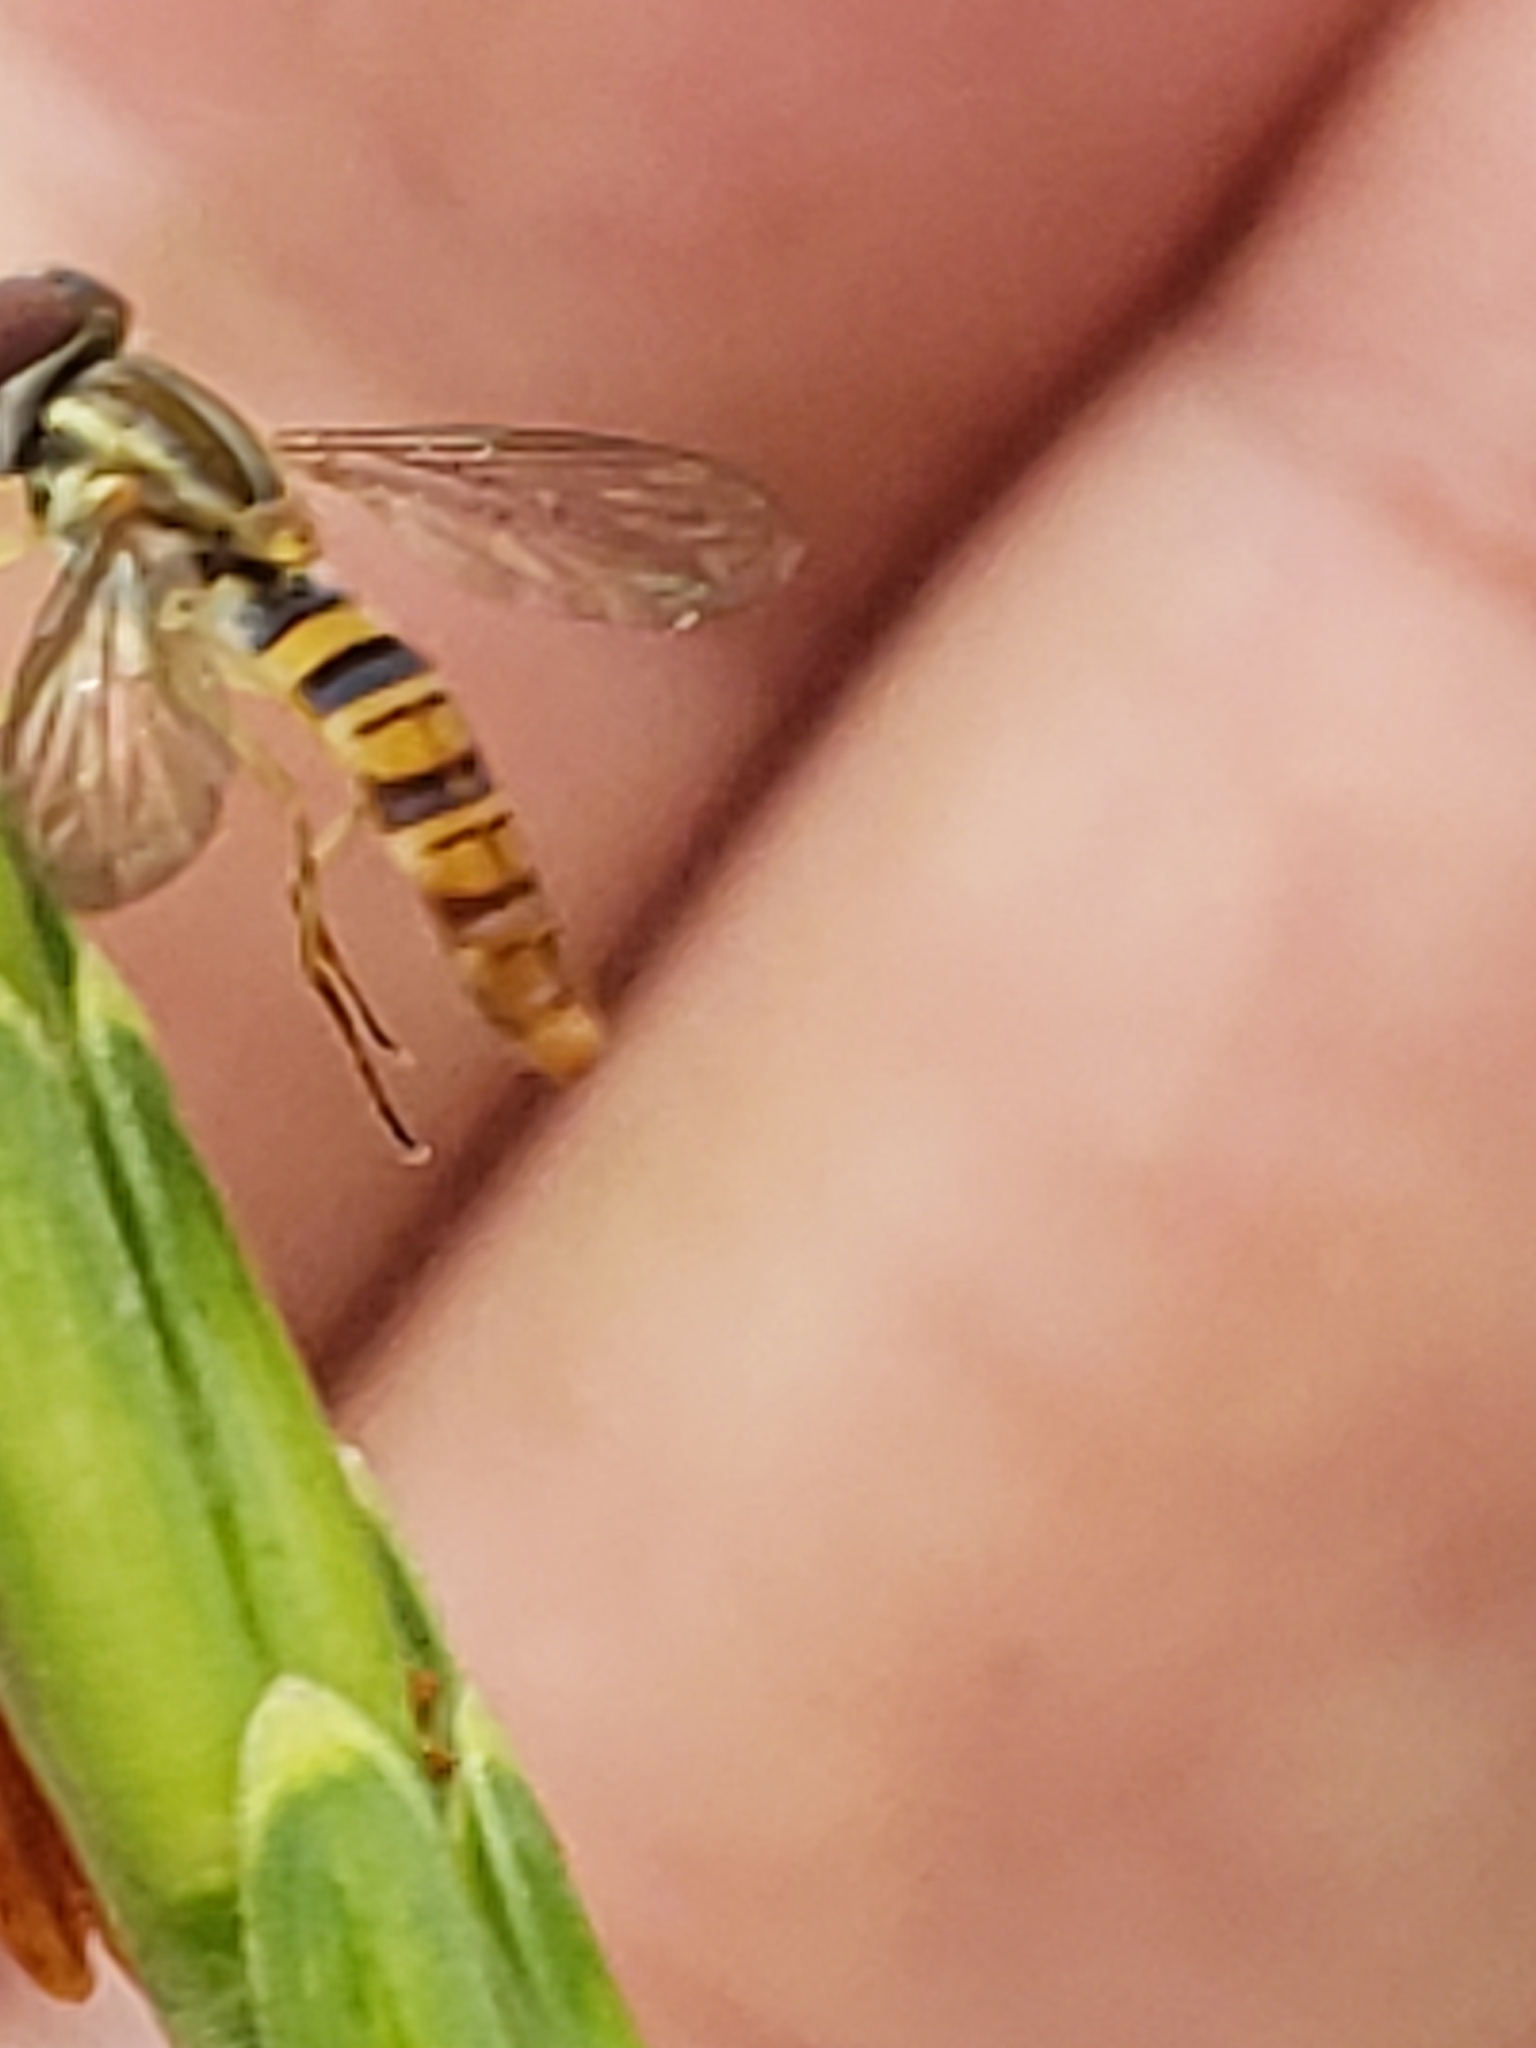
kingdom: Animalia
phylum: Arthropoda
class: Insecta
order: Diptera
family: Syrphidae
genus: Toxomerus
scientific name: Toxomerus politus
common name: Maize calligrapher
